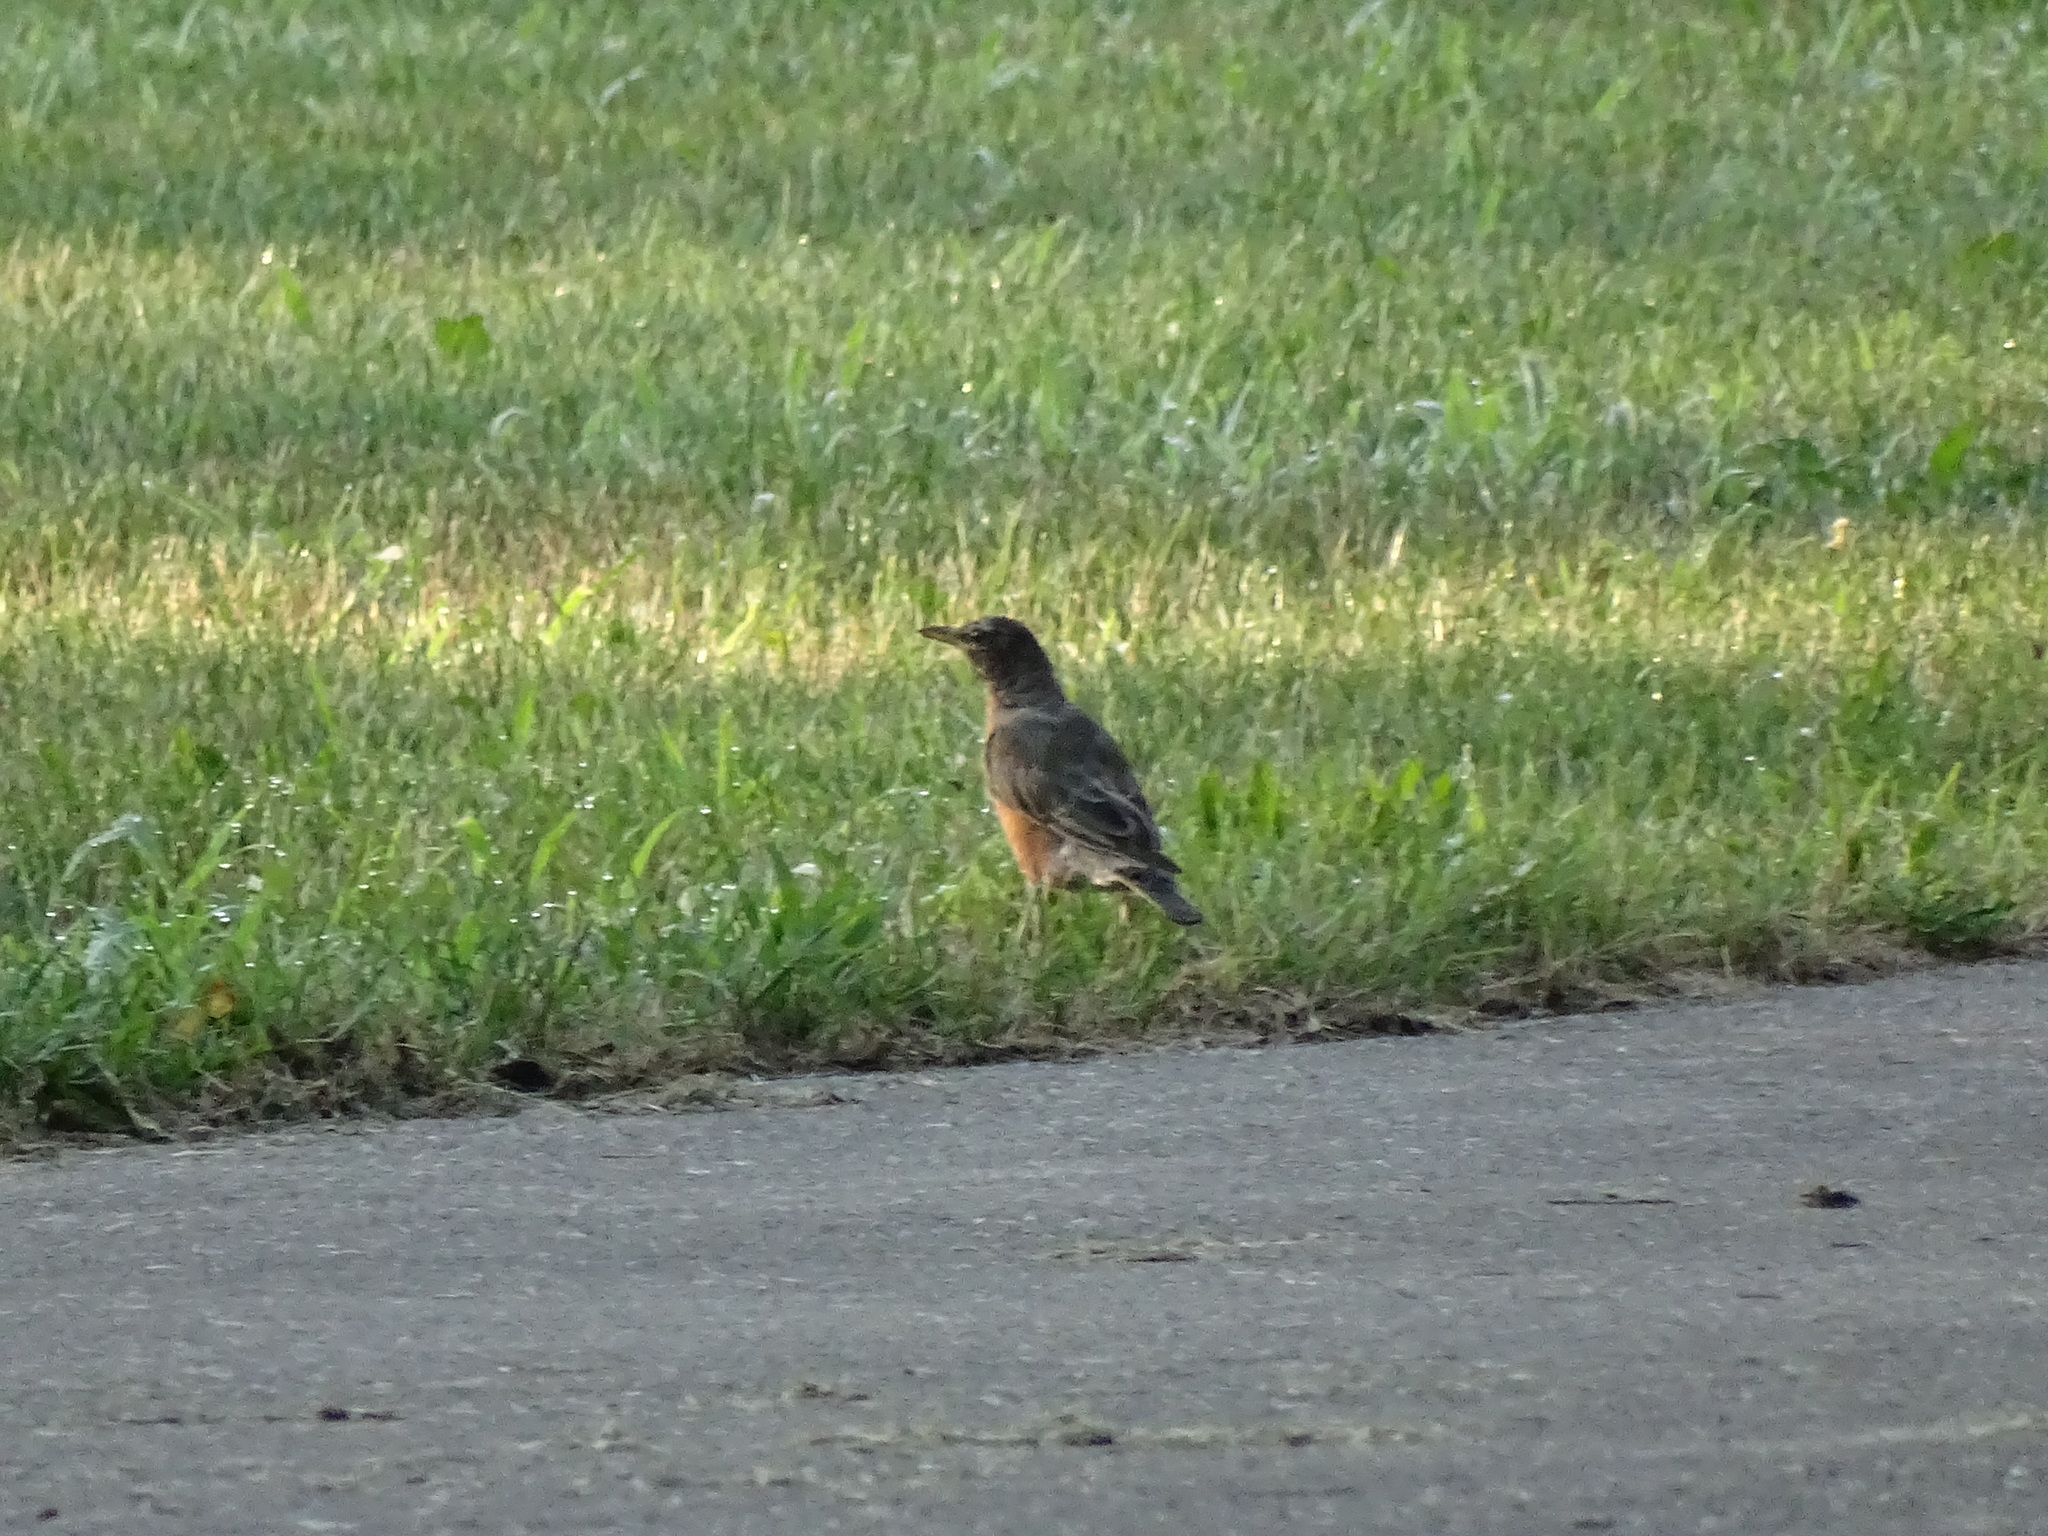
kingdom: Animalia
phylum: Chordata
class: Aves
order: Passeriformes
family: Turdidae
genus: Turdus
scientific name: Turdus migratorius
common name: American robin
